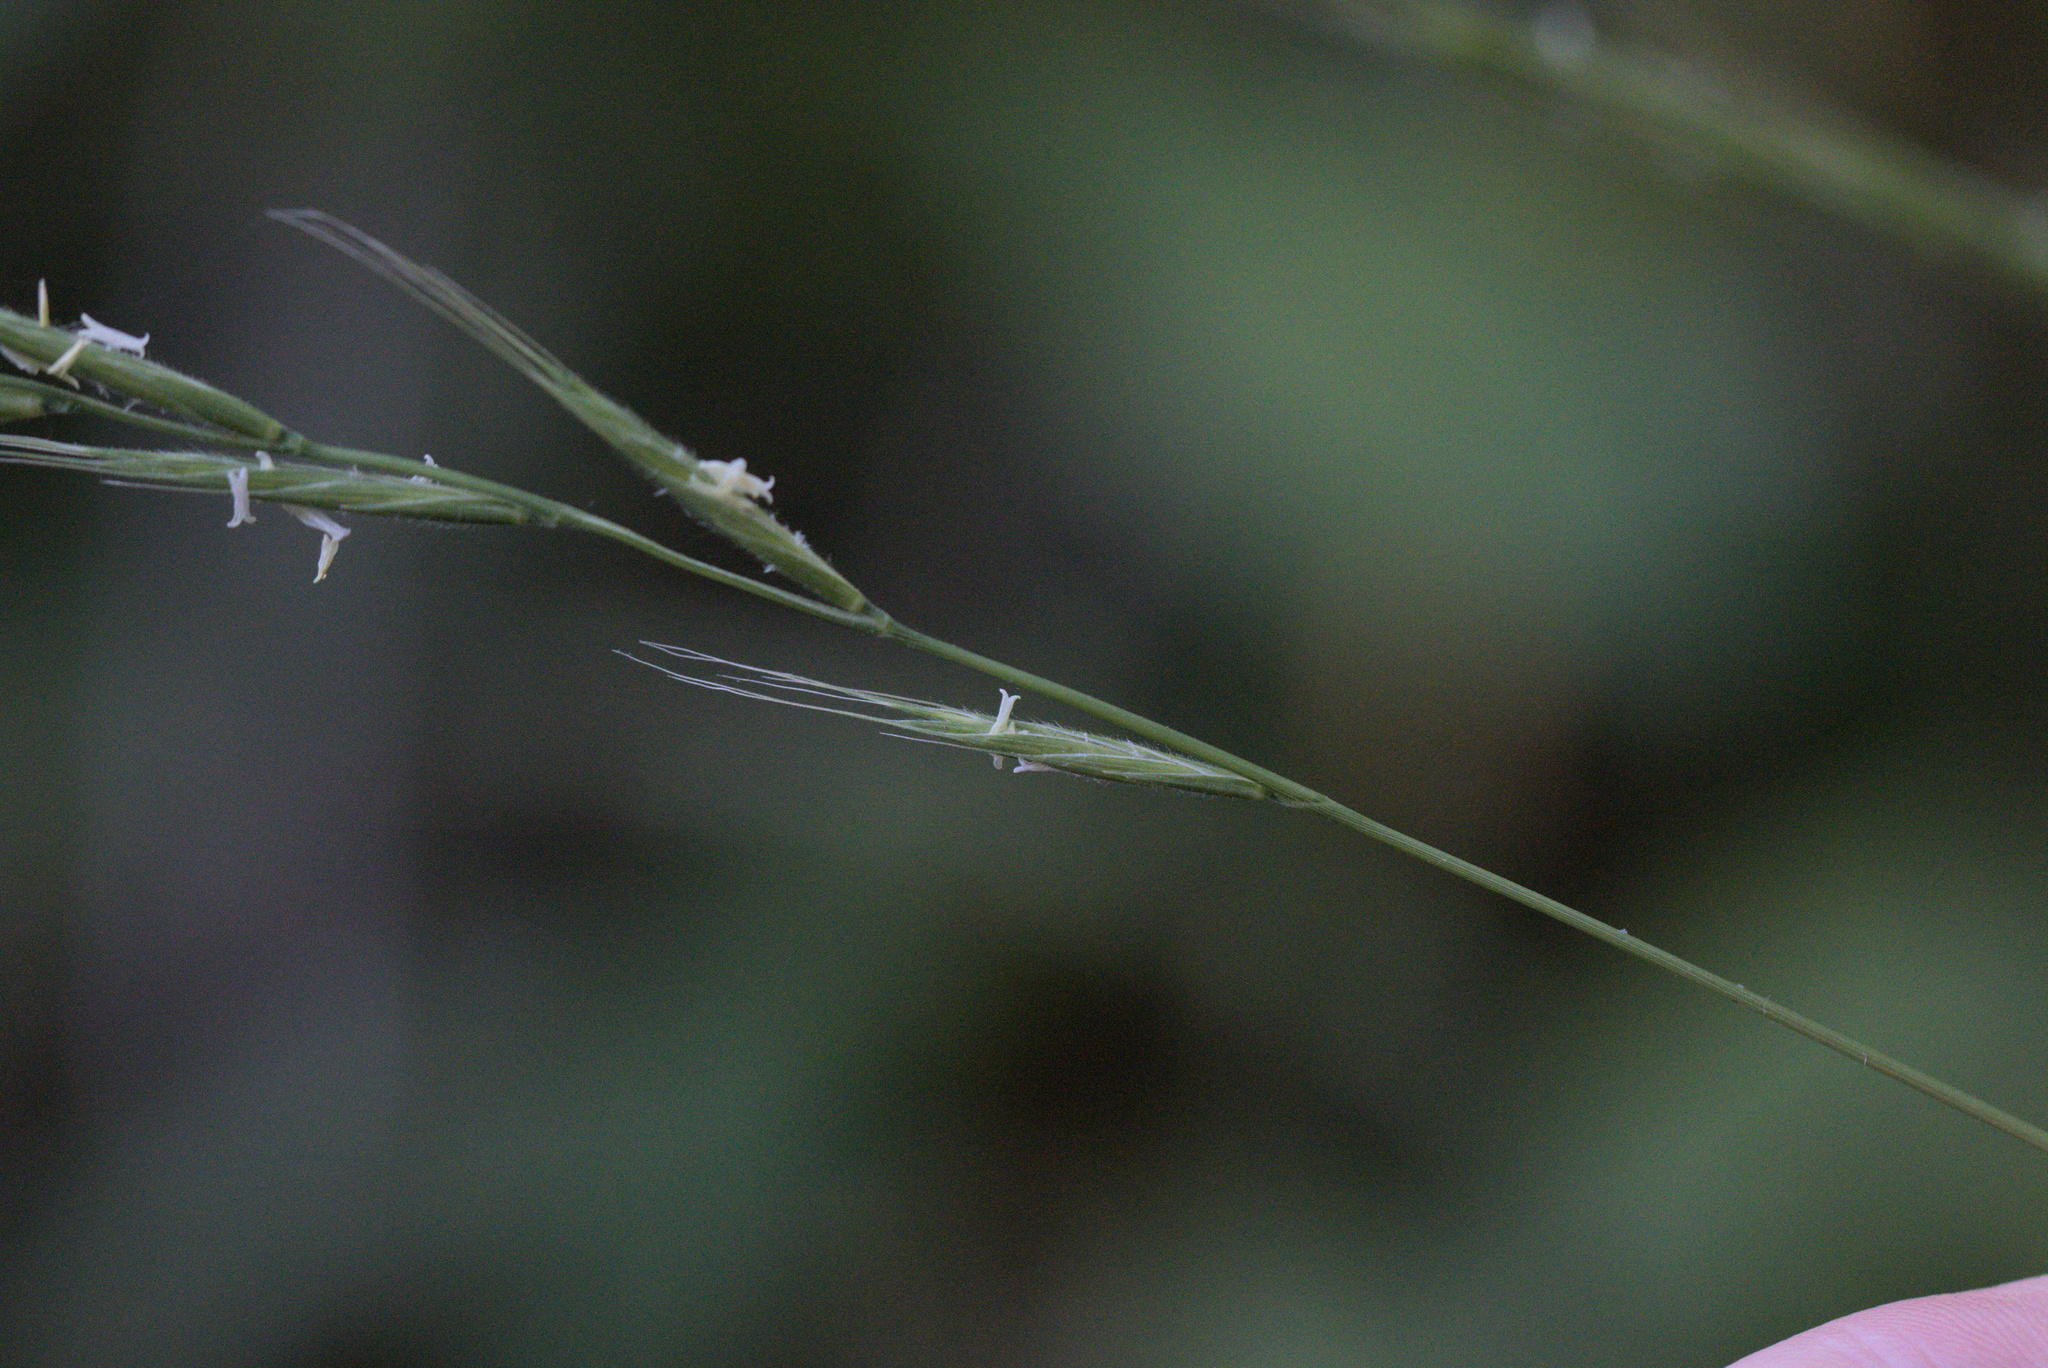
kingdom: Plantae
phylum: Tracheophyta
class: Liliopsida
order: Poales
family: Poaceae
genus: Brachypodium
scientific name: Brachypodium sylvaticum
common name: False-brome
